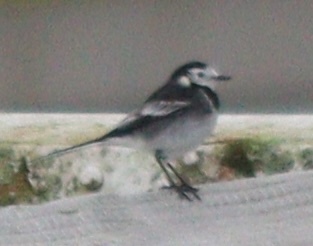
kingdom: Animalia
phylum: Chordata
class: Aves
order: Passeriformes
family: Motacillidae
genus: Motacilla
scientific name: Motacilla alba
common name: White wagtail
